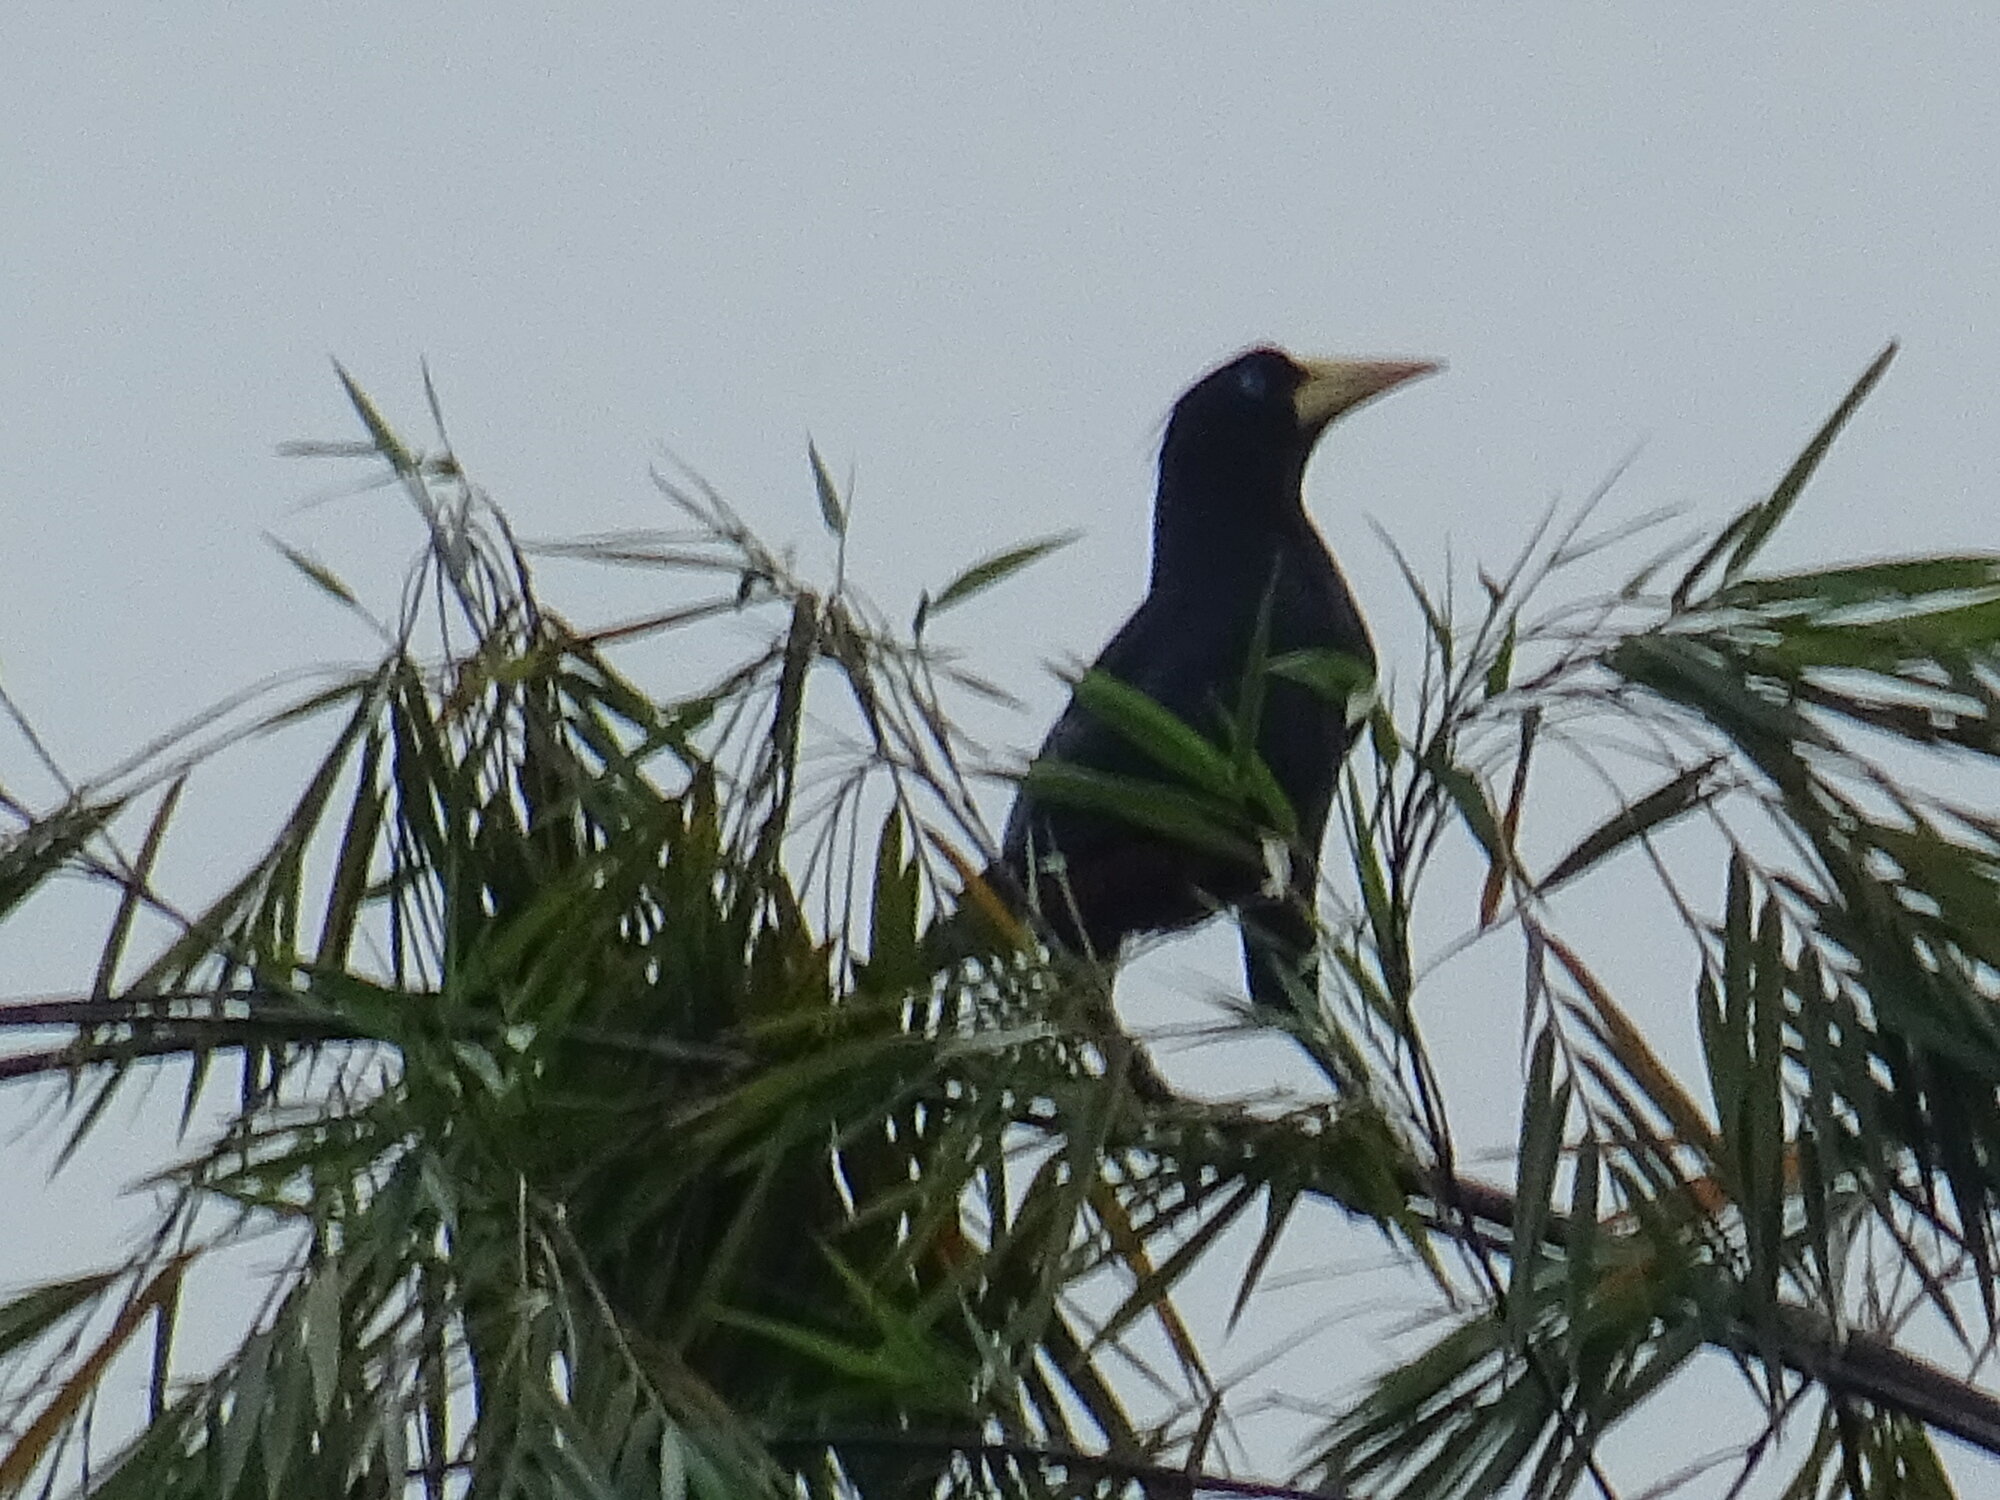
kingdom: Animalia
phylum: Chordata
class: Aves
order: Passeriformes
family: Icteridae
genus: Psarocolius
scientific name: Psarocolius decumanus
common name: Crested oropendola
